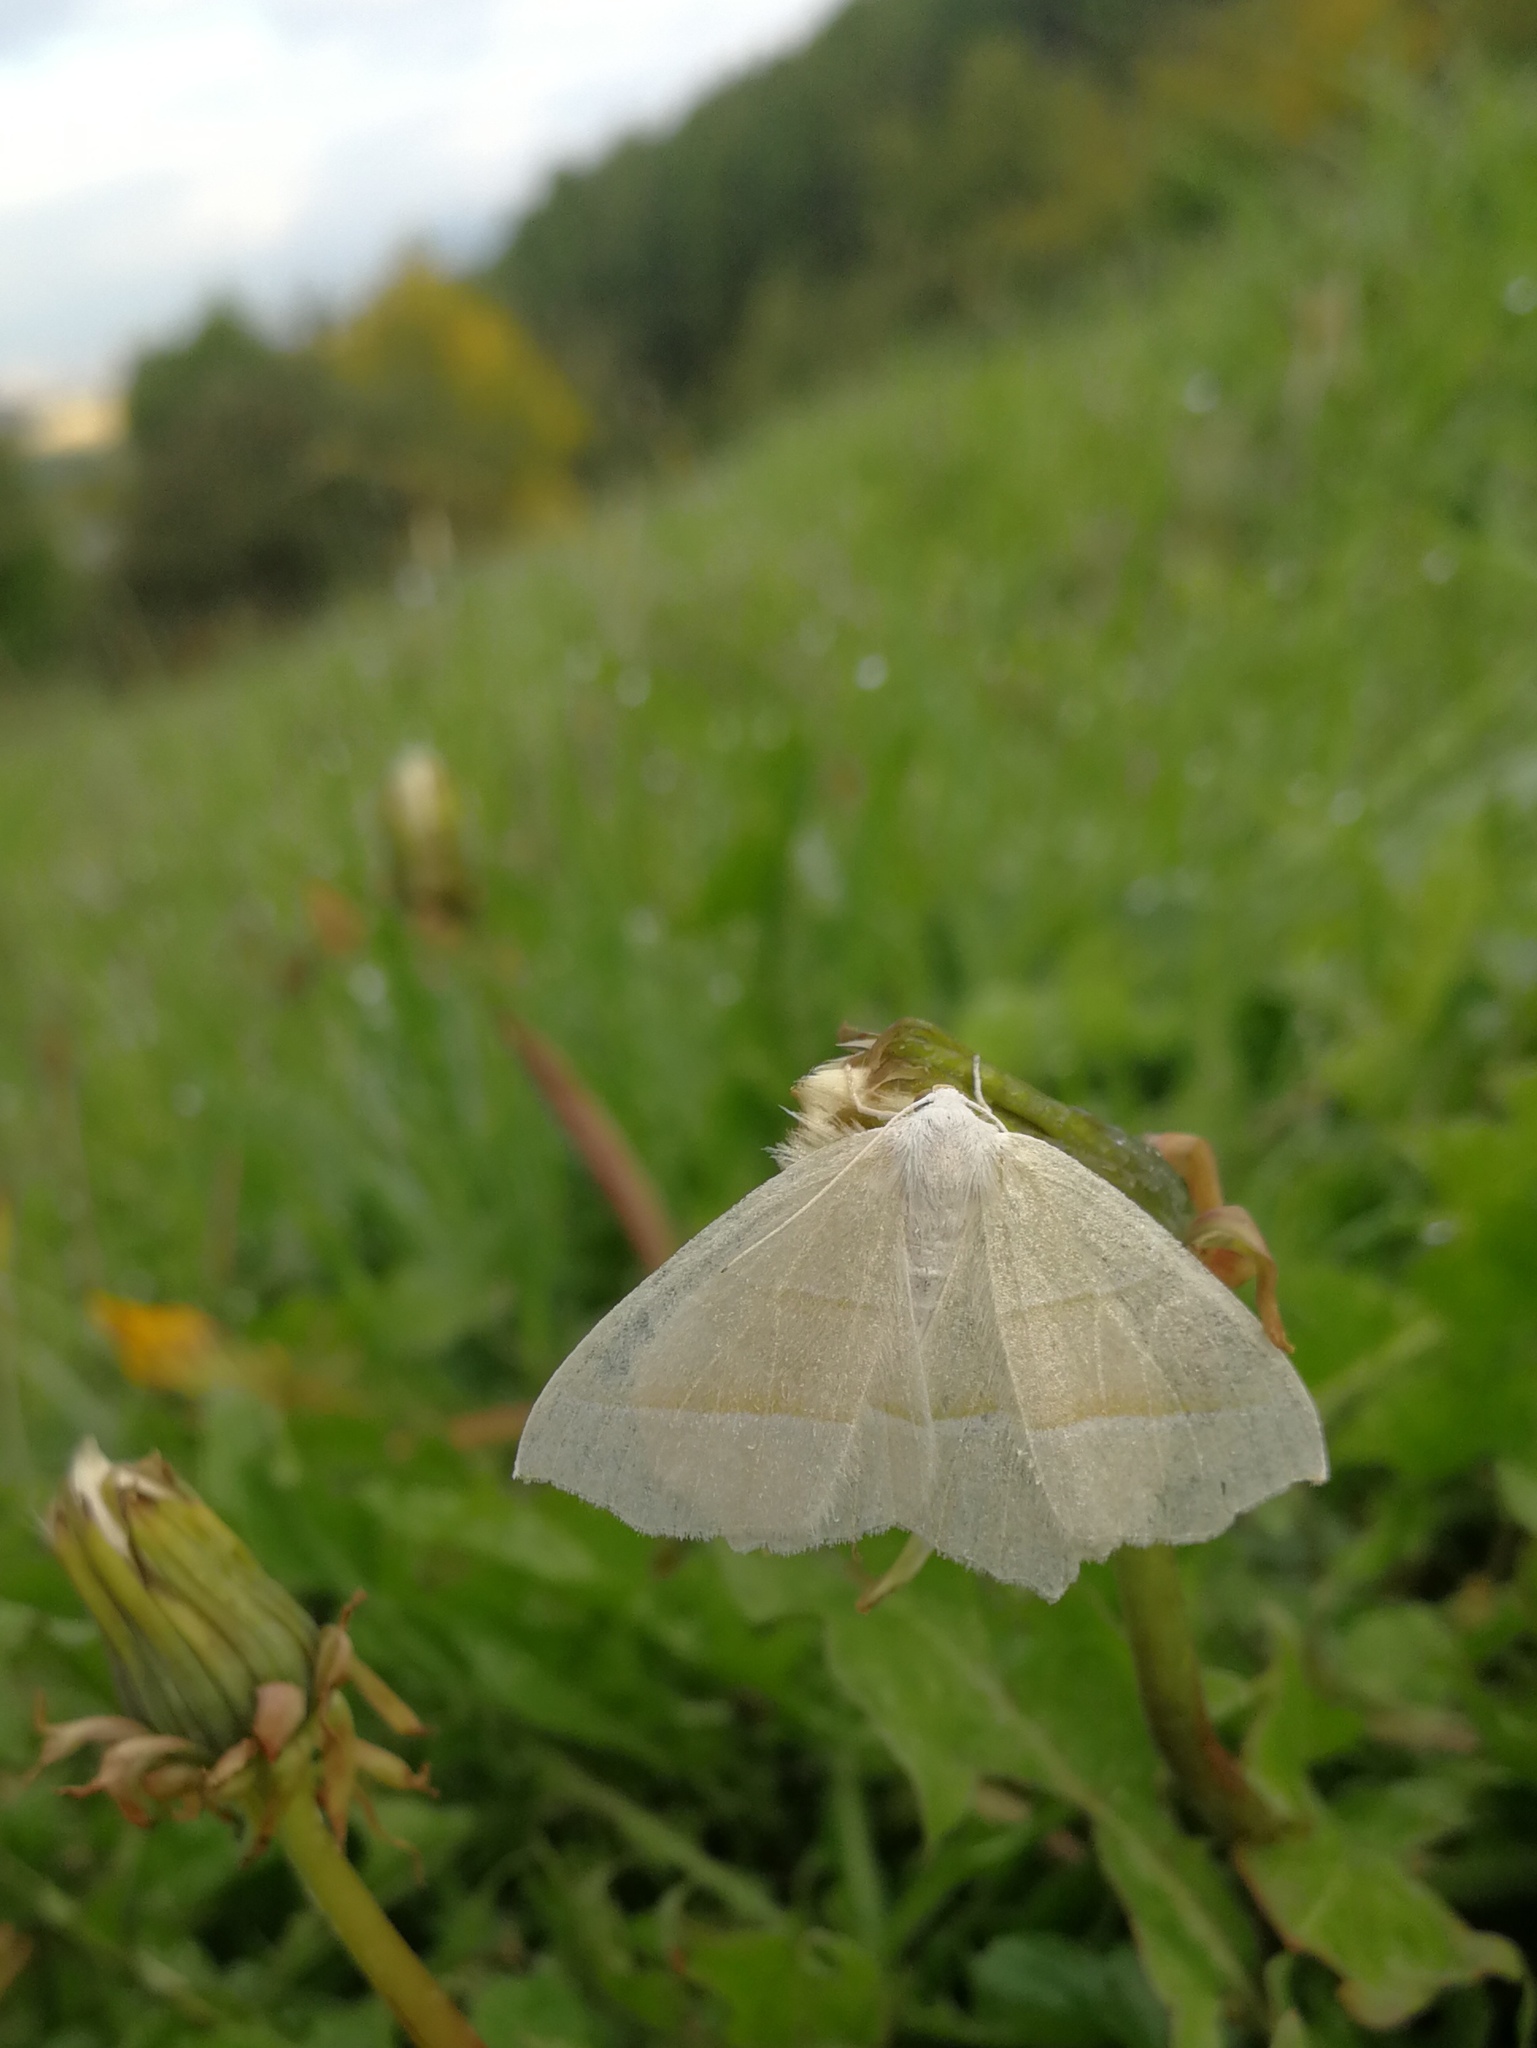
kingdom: Animalia
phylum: Arthropoda
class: Insecta
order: Lepidoptera
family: Geometridae
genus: Campaea
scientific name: Campaea margaritaria
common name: Light emerald
